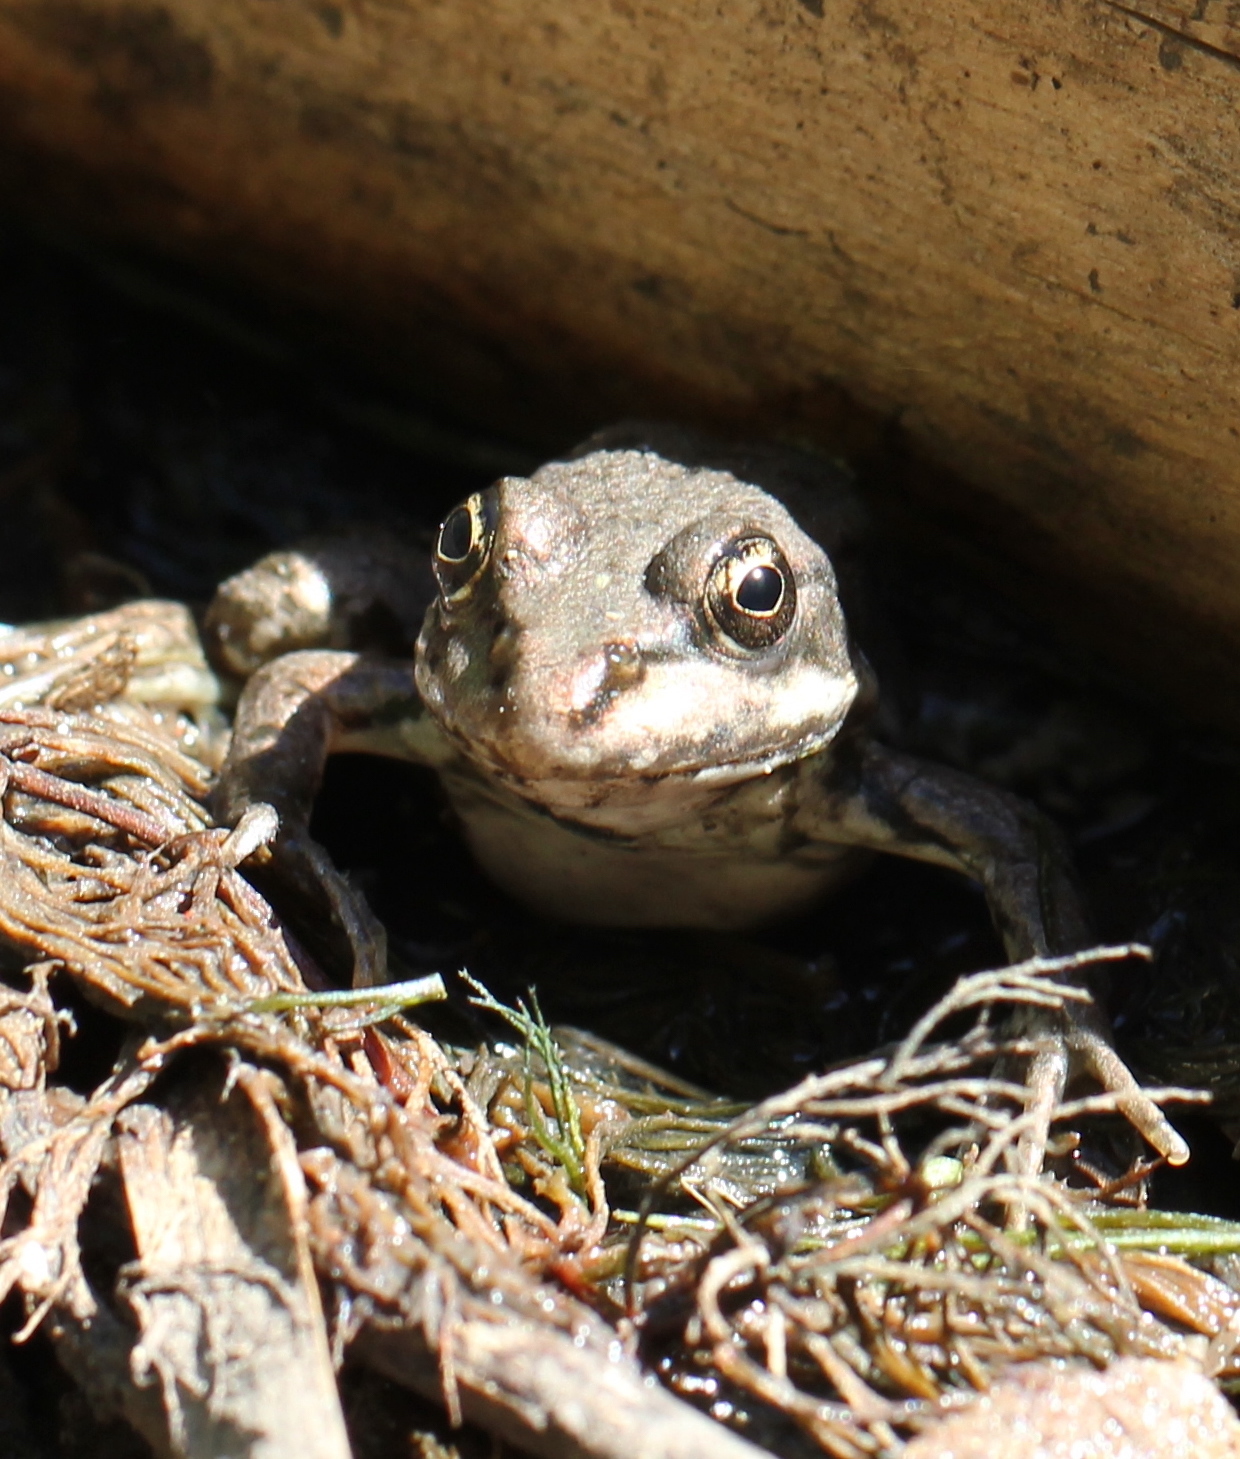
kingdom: Animalia
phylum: Chordata
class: Amphibia
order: Anura
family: Ranidae
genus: Pelophylax
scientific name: Pelophylax ridibundus
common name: Marsh frog
